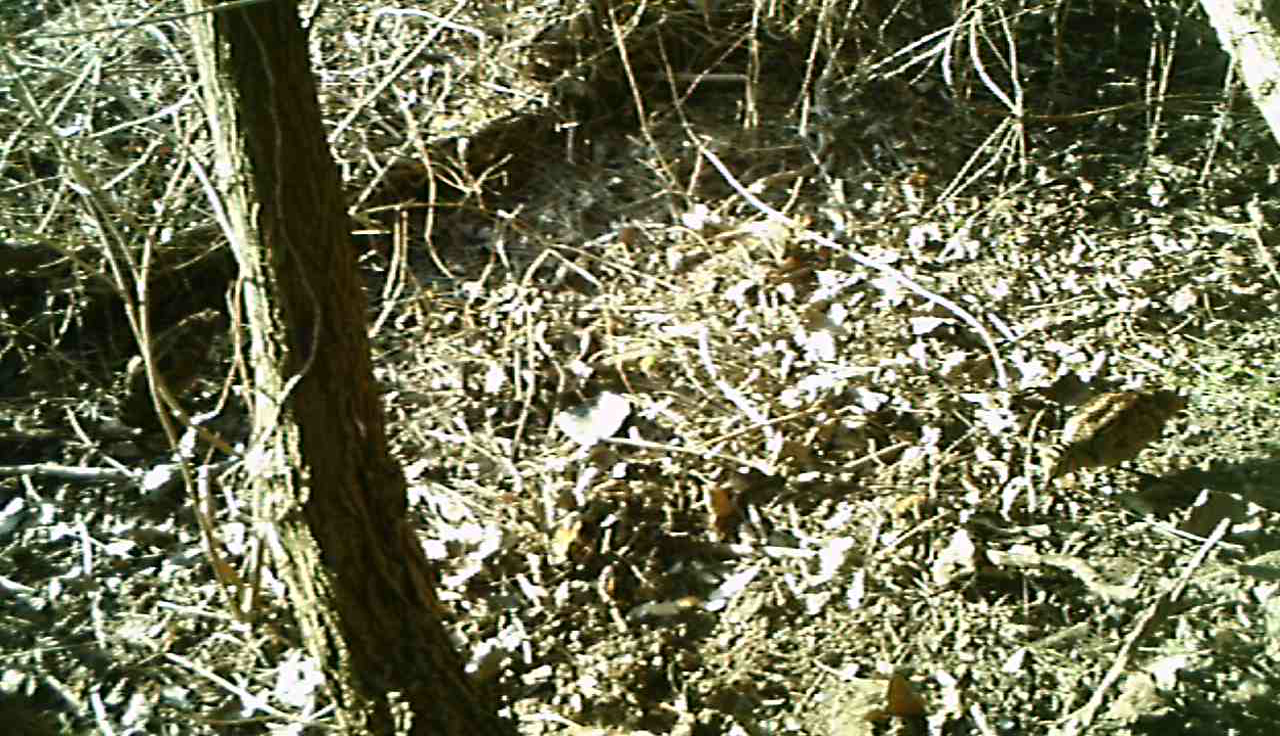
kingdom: Animalia
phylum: Chordata
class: Aves
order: Charadriiformes
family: Scolopacidae
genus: Scolopax
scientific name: Scolopax rusticola
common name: Eurasian woodcock
